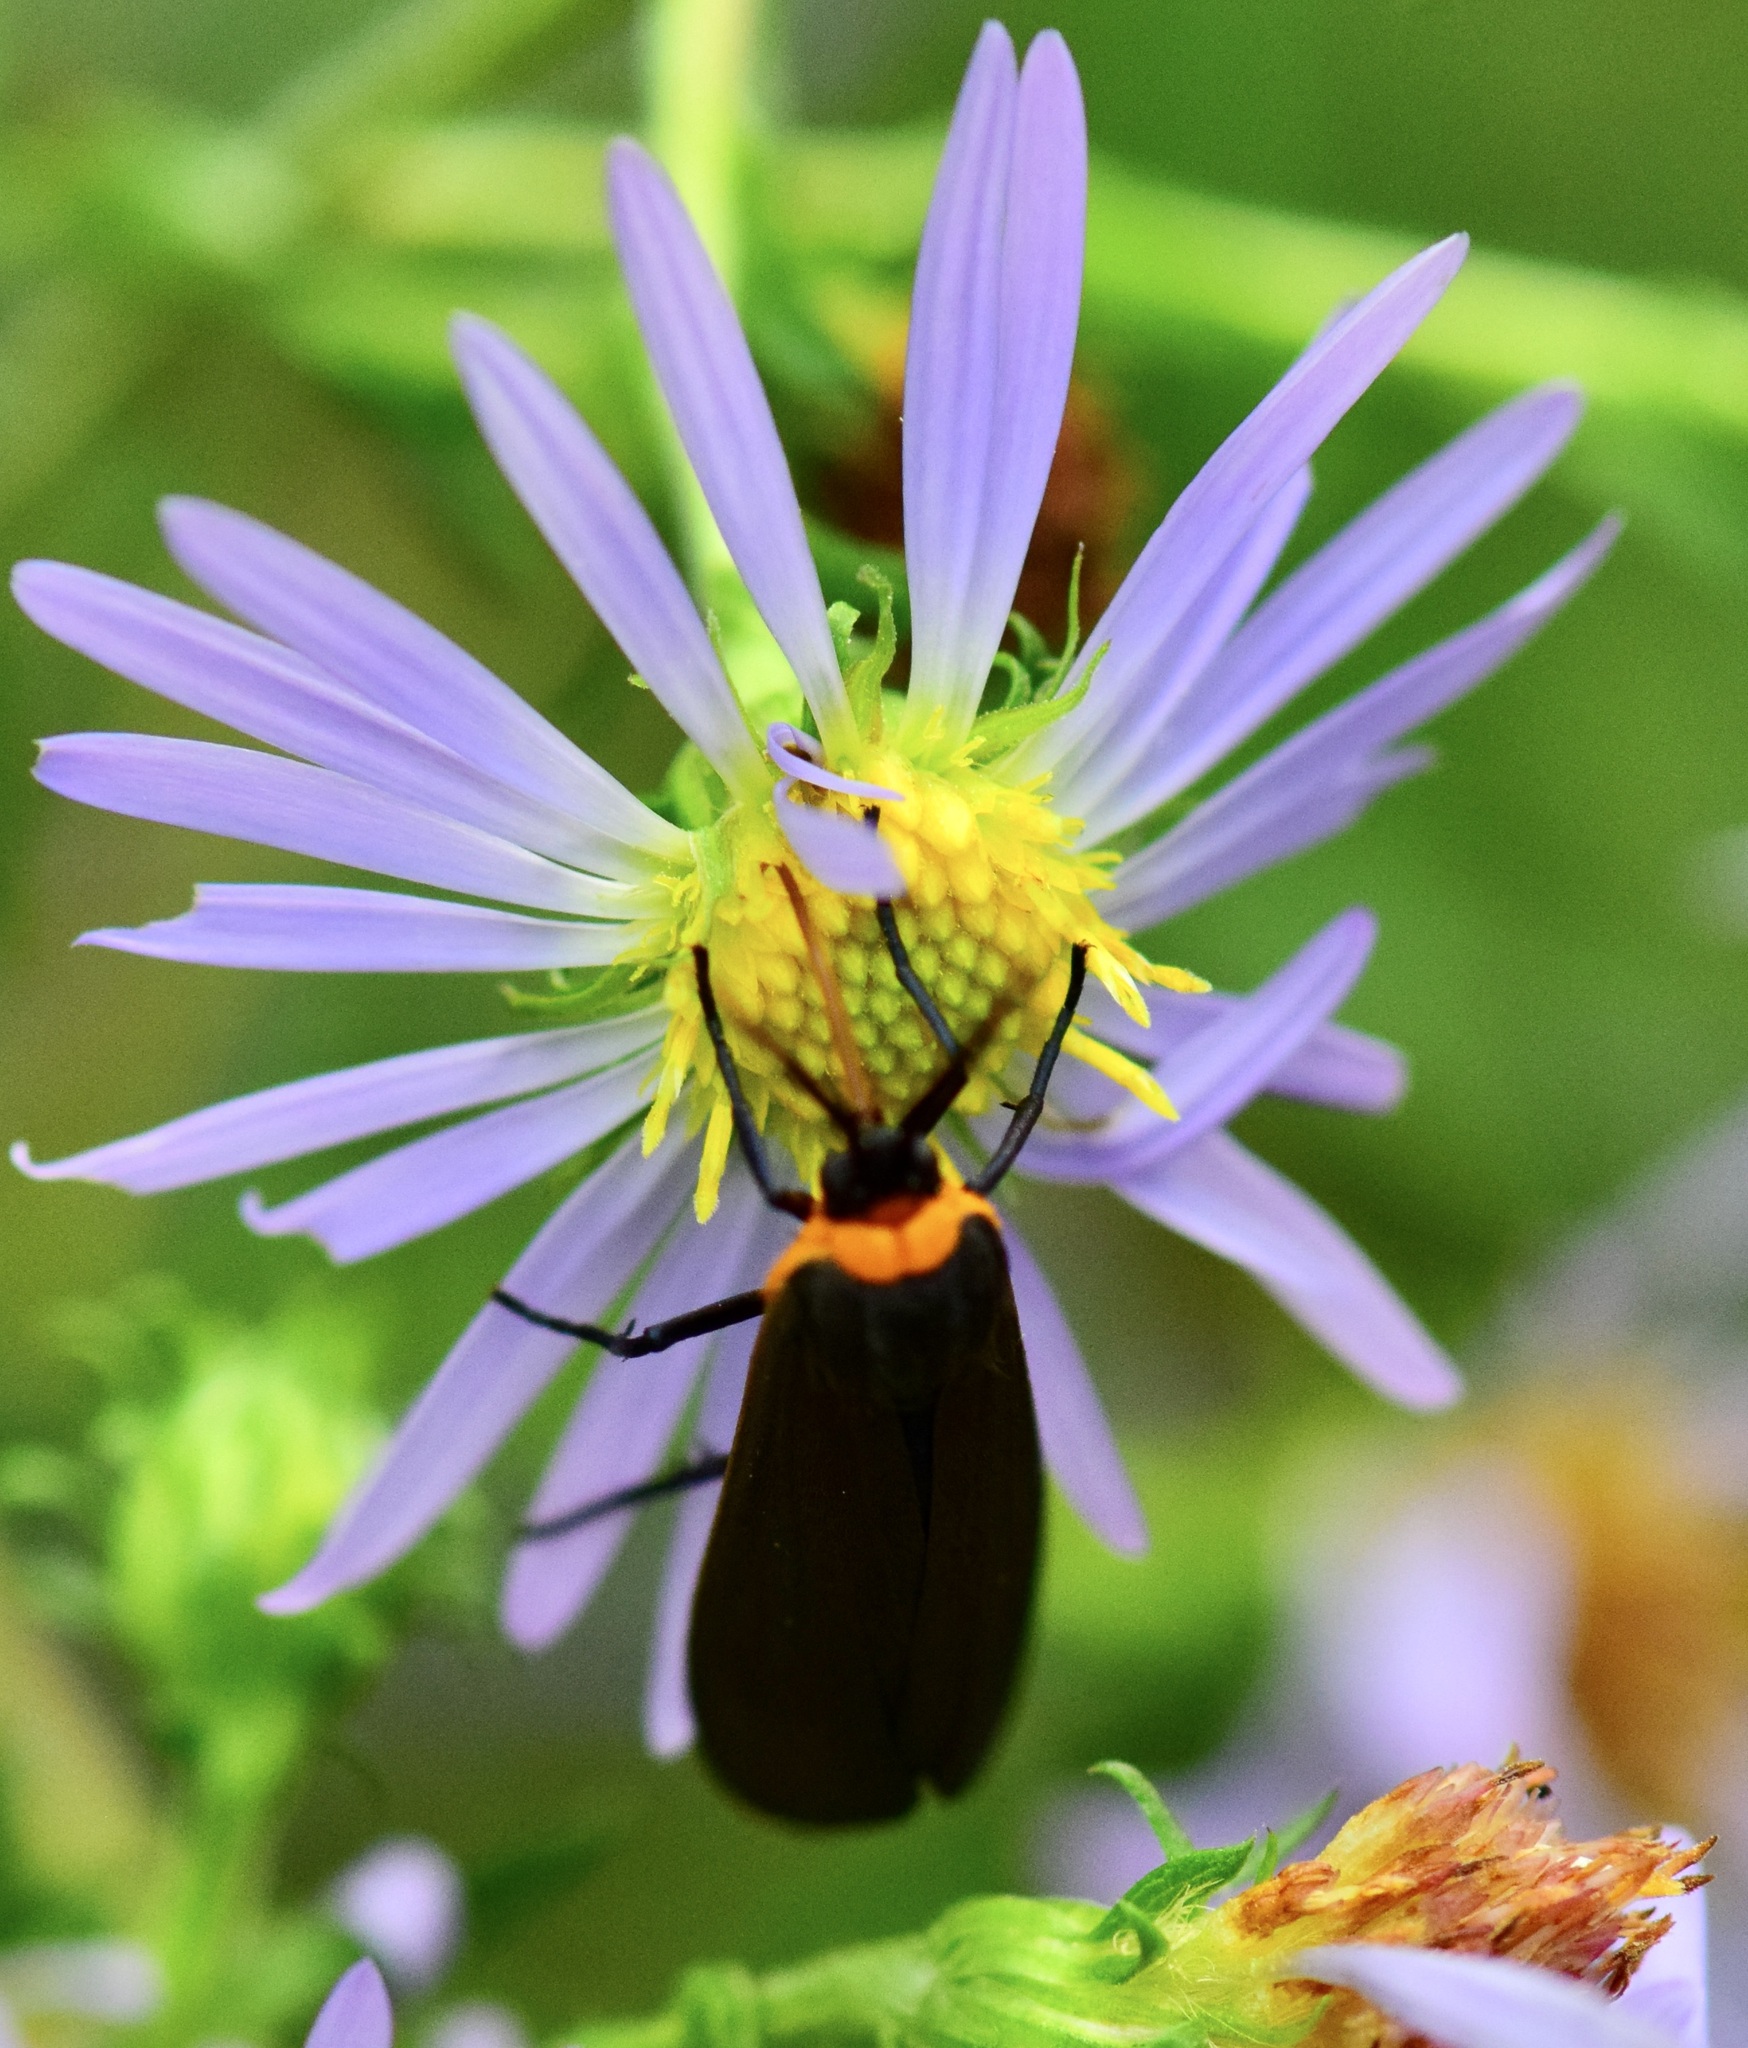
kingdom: Animalia
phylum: Arthropoda
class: Insecta
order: Lepidoptera
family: Erebidae
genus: Cisseps
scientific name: Cisseps fulvicollis
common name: Yellow-collared scape moth
